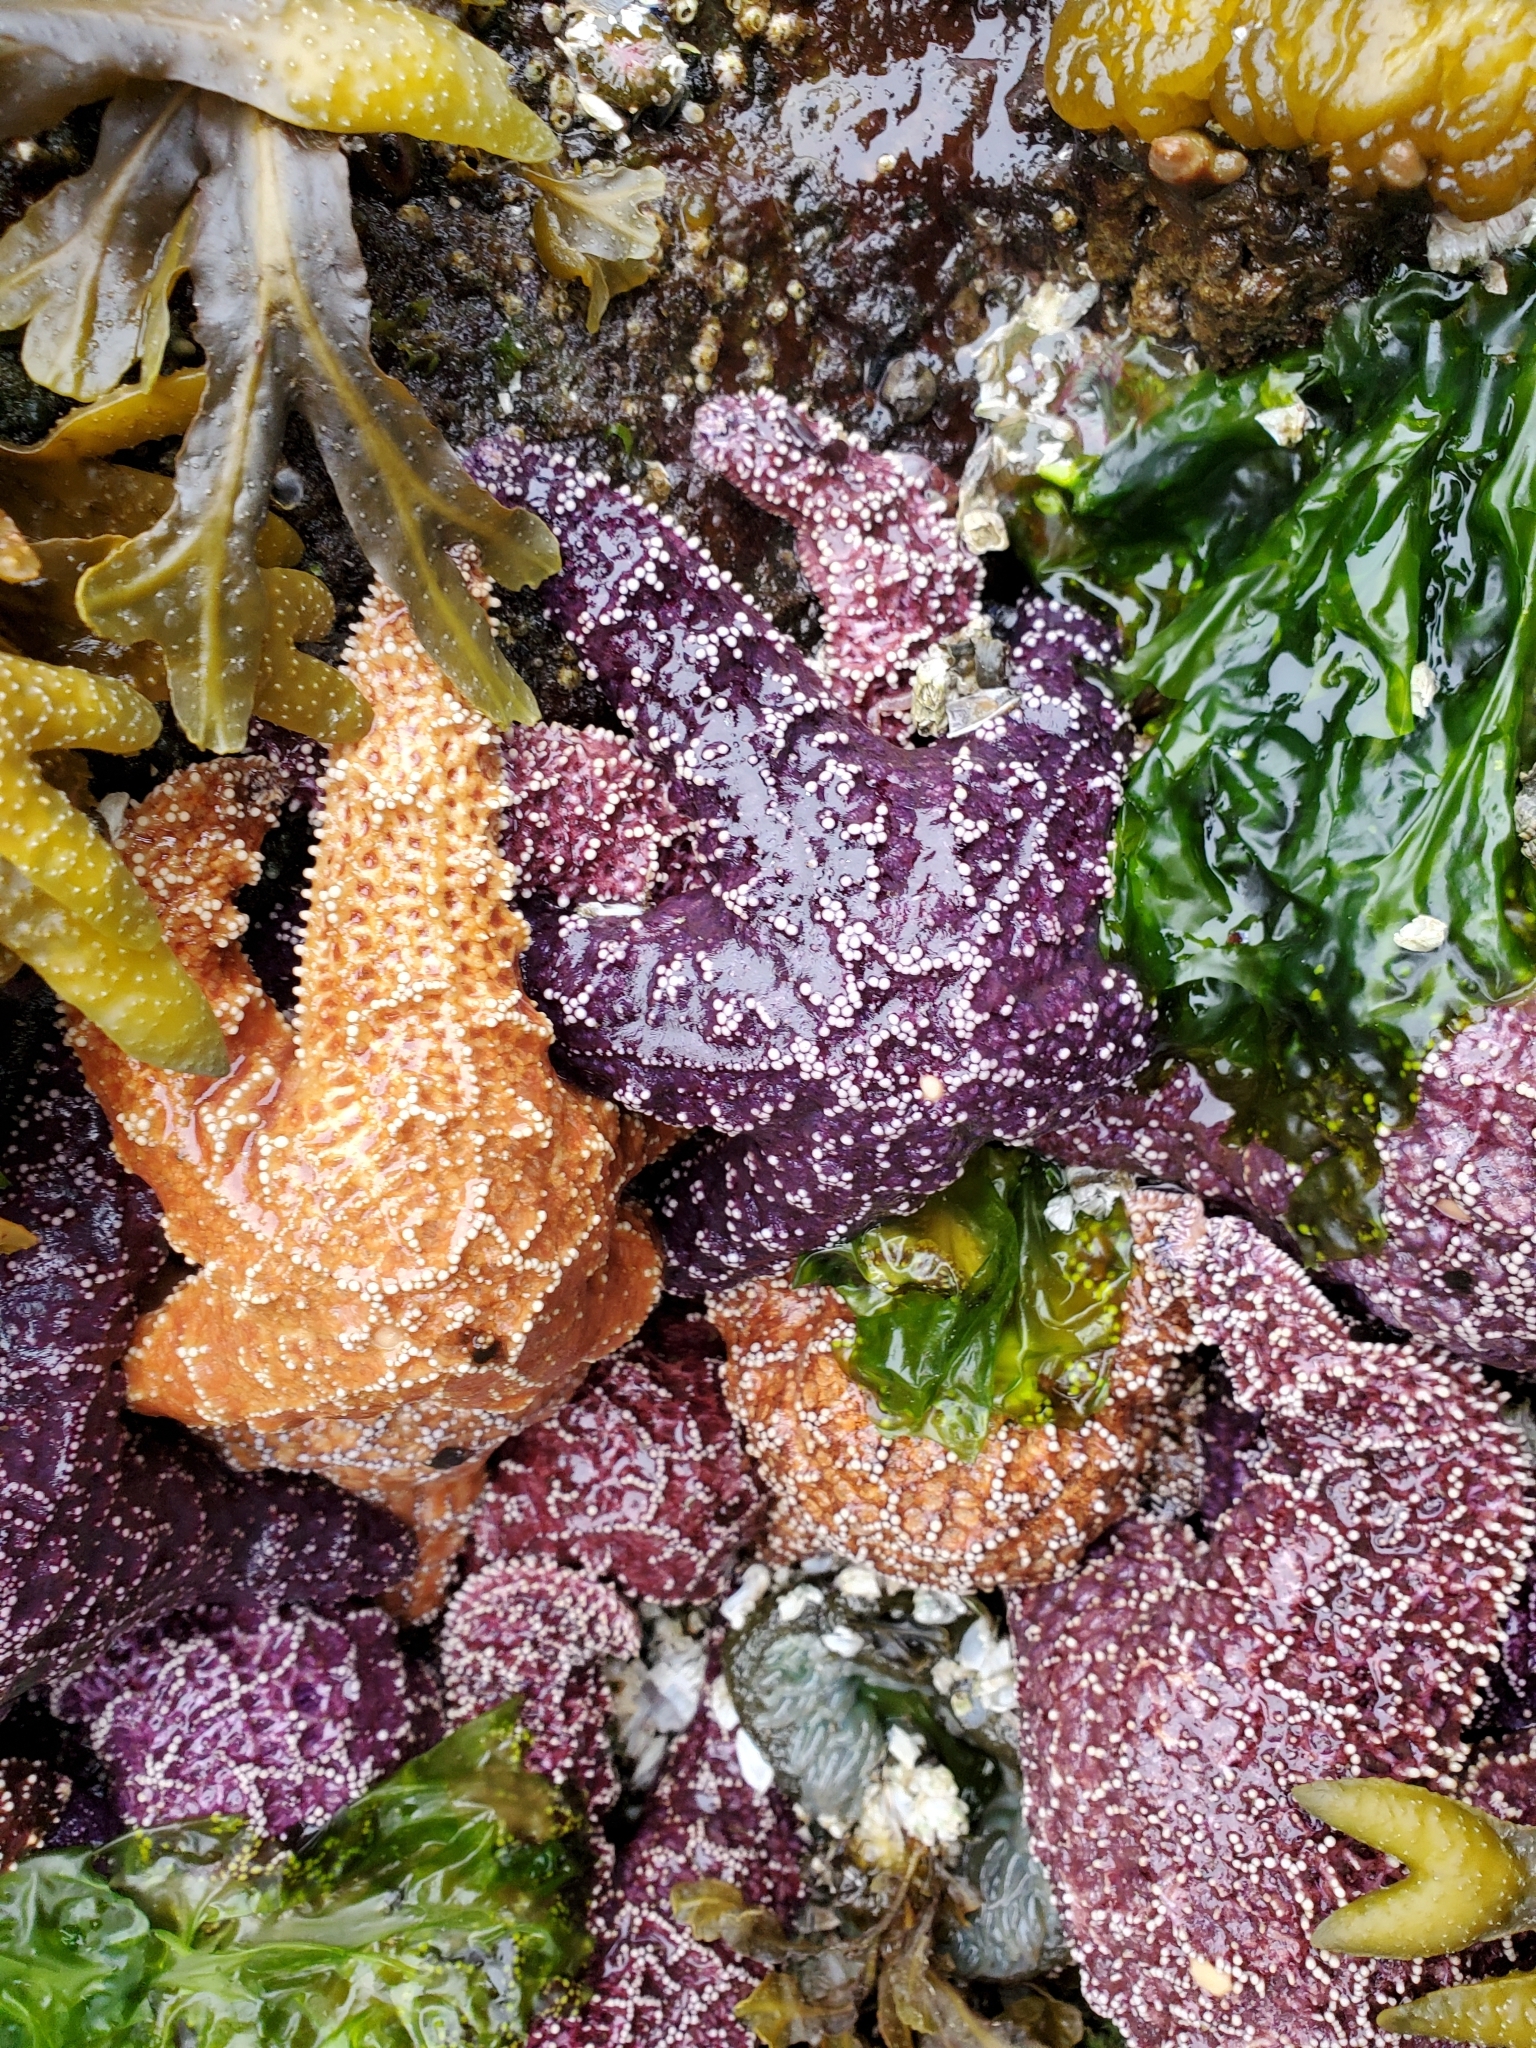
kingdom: Animalia
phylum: Echinodermata
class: Asteroidea
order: Forcipulatida
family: Asteriidae
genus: Pisaster
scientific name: Pisaster ochraceus
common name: Ochre stars
